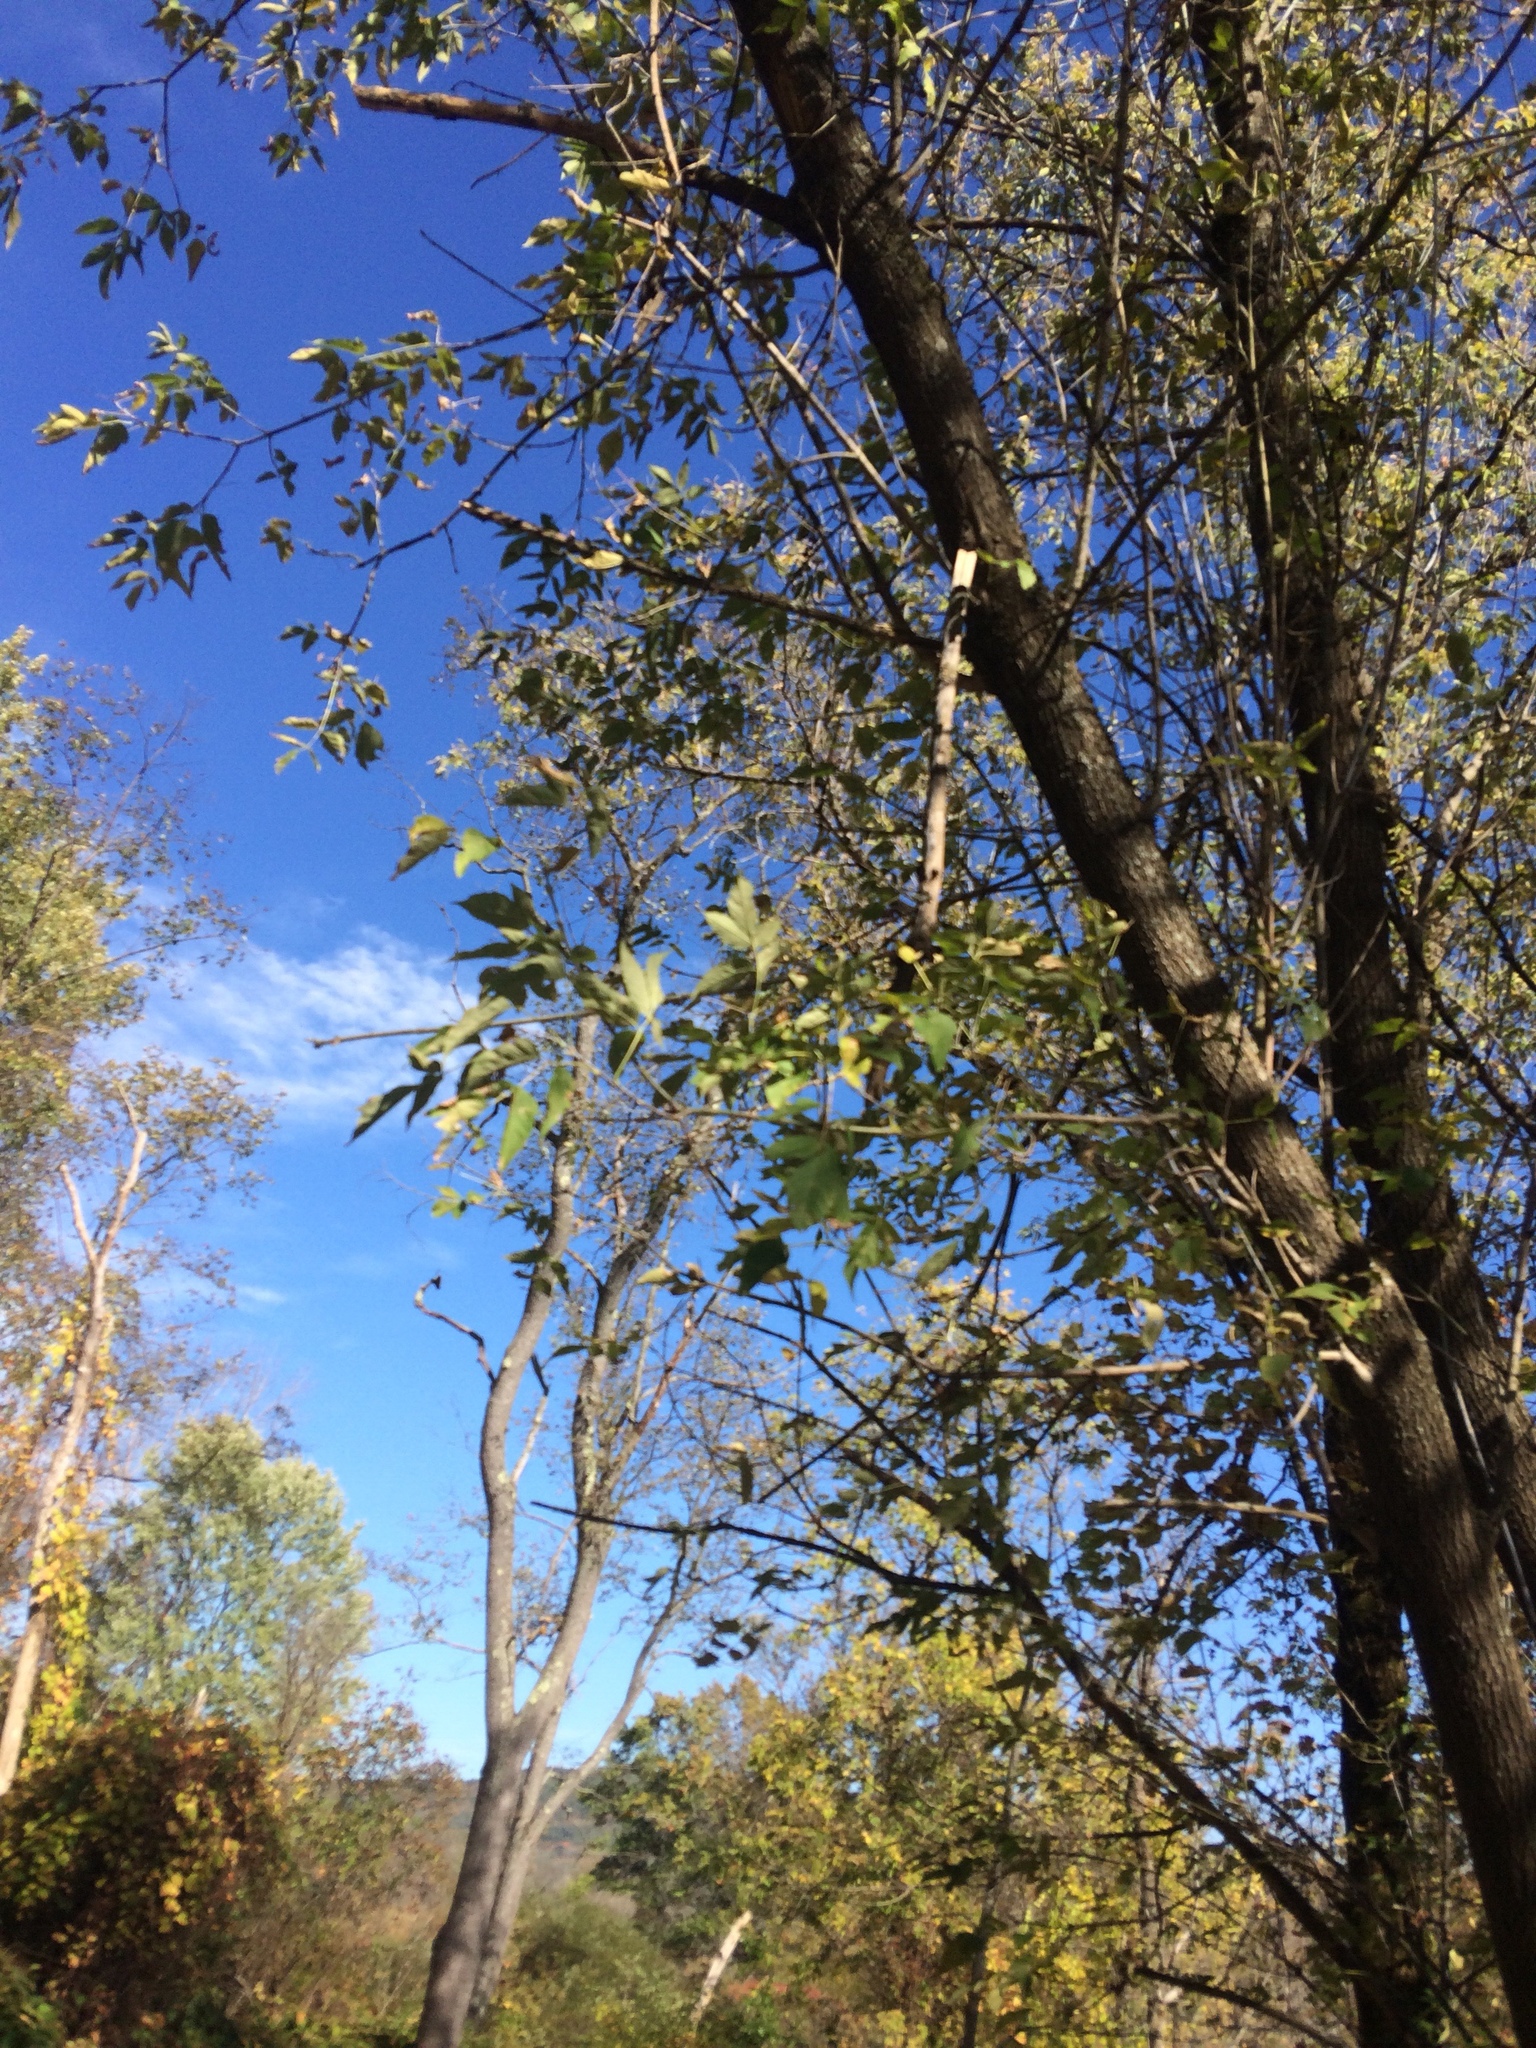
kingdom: Plantae
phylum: Tracheophyta
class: Magnoliopsida
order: Sapindales
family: Sapindaceae
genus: Acer
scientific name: Acer negundo
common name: Ashleaf maple
